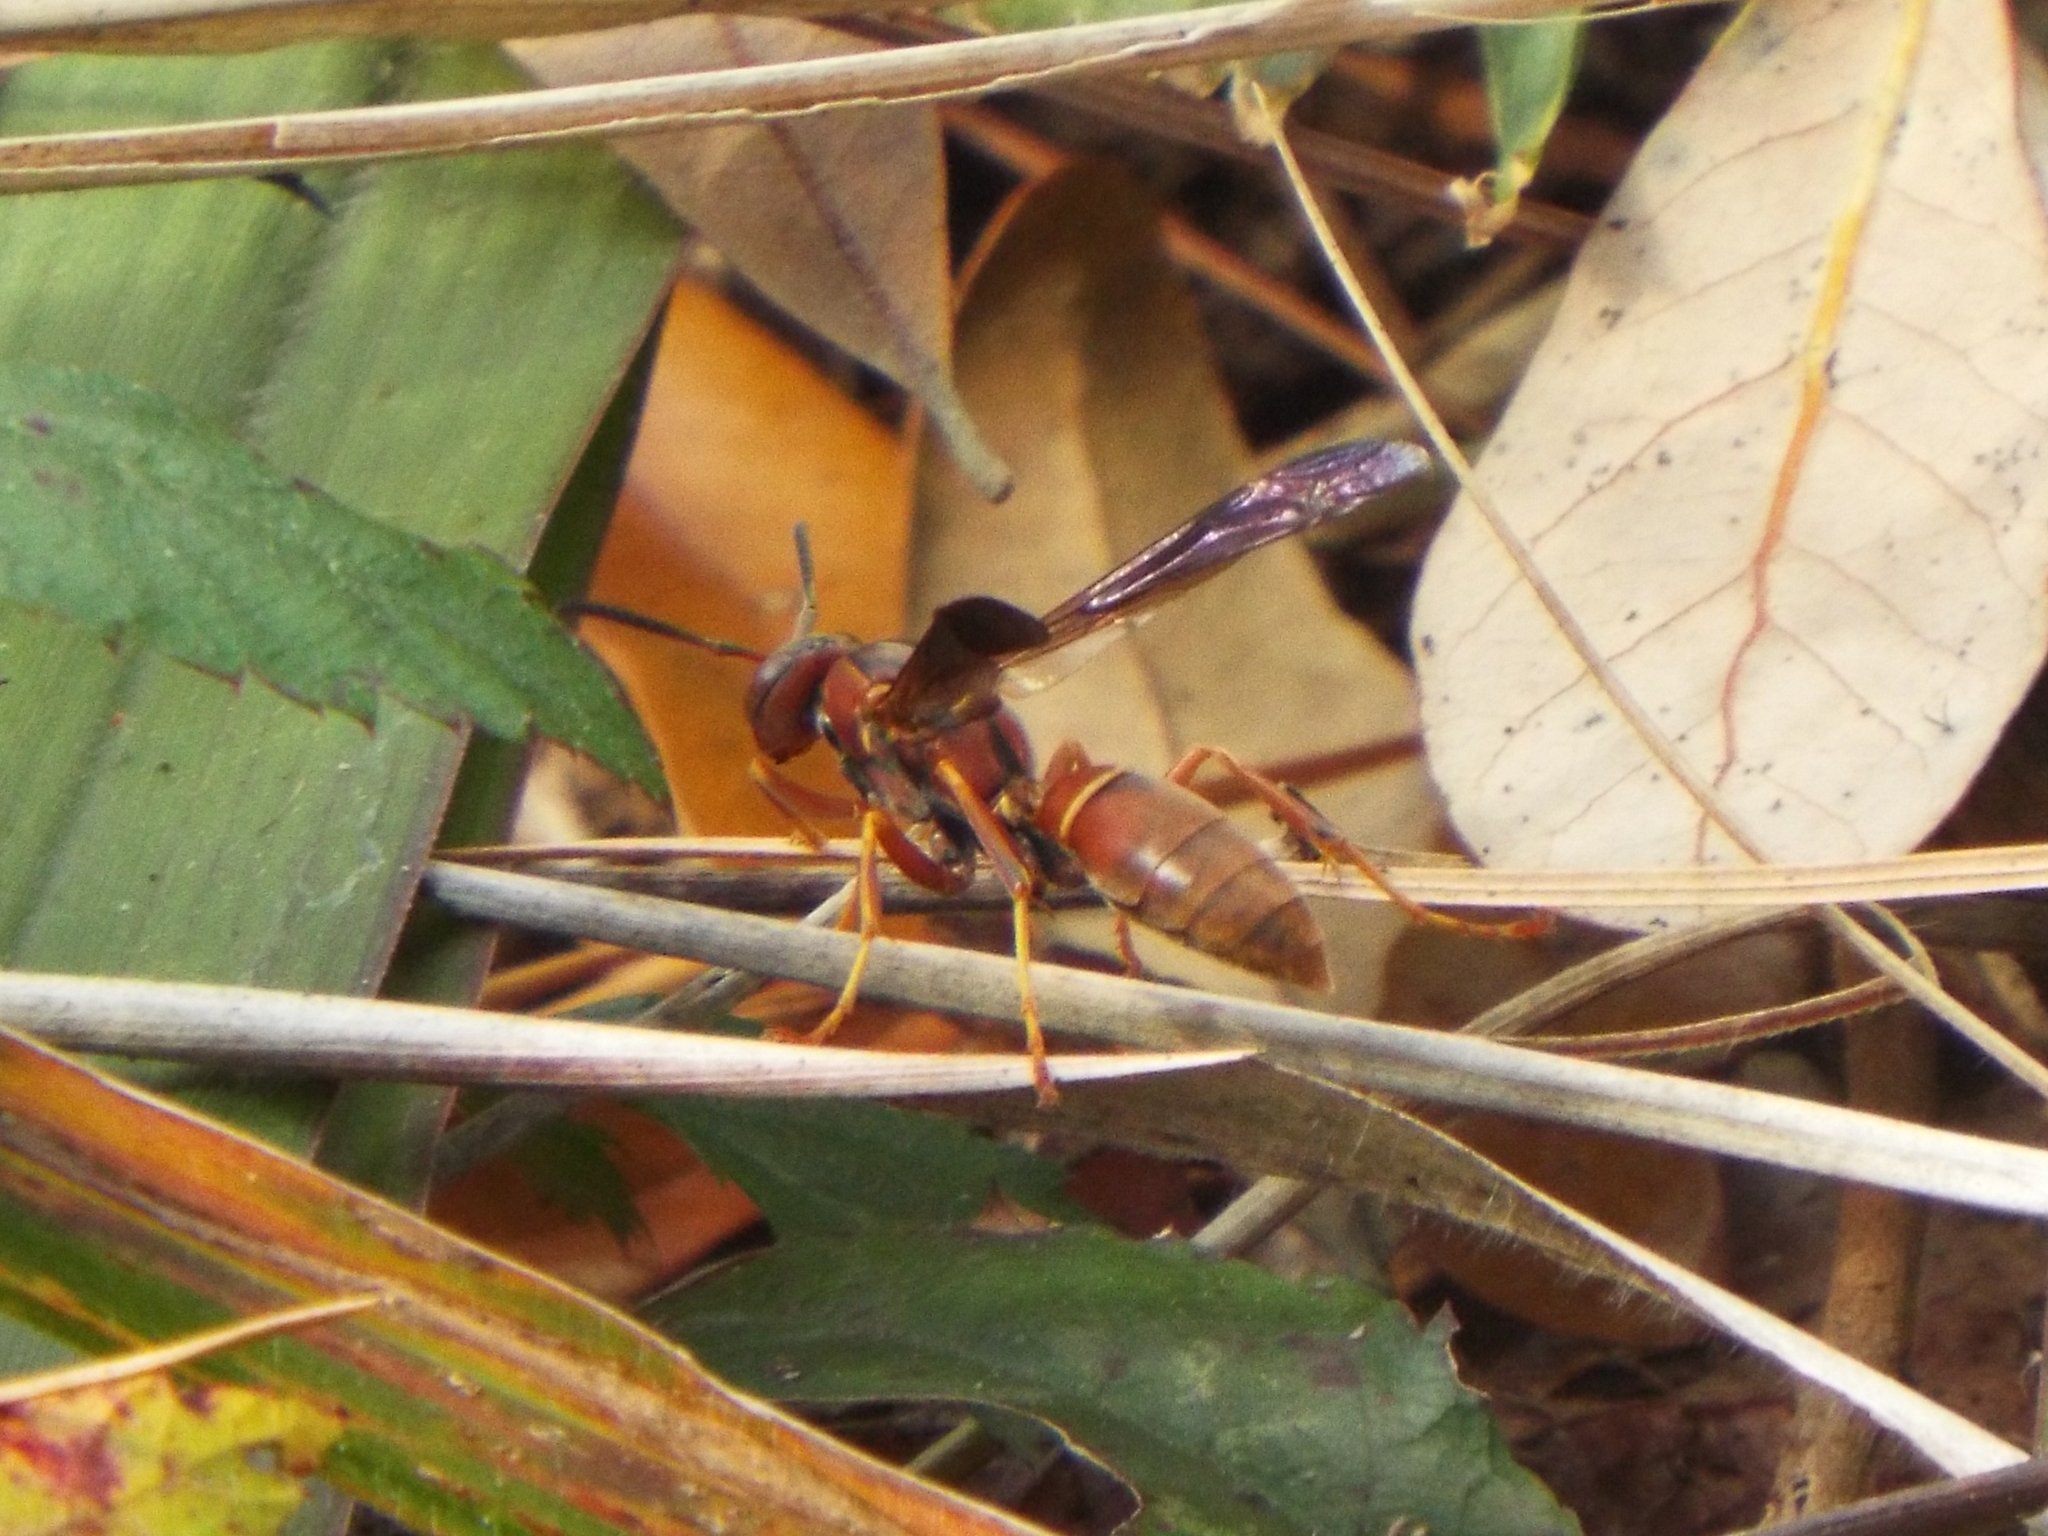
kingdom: Animalia
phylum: Arthropoda
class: Insecta
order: Hymenoptera
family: Eumenidae
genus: Polistes
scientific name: Polistes fuscatus
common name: Dark paper wasp
